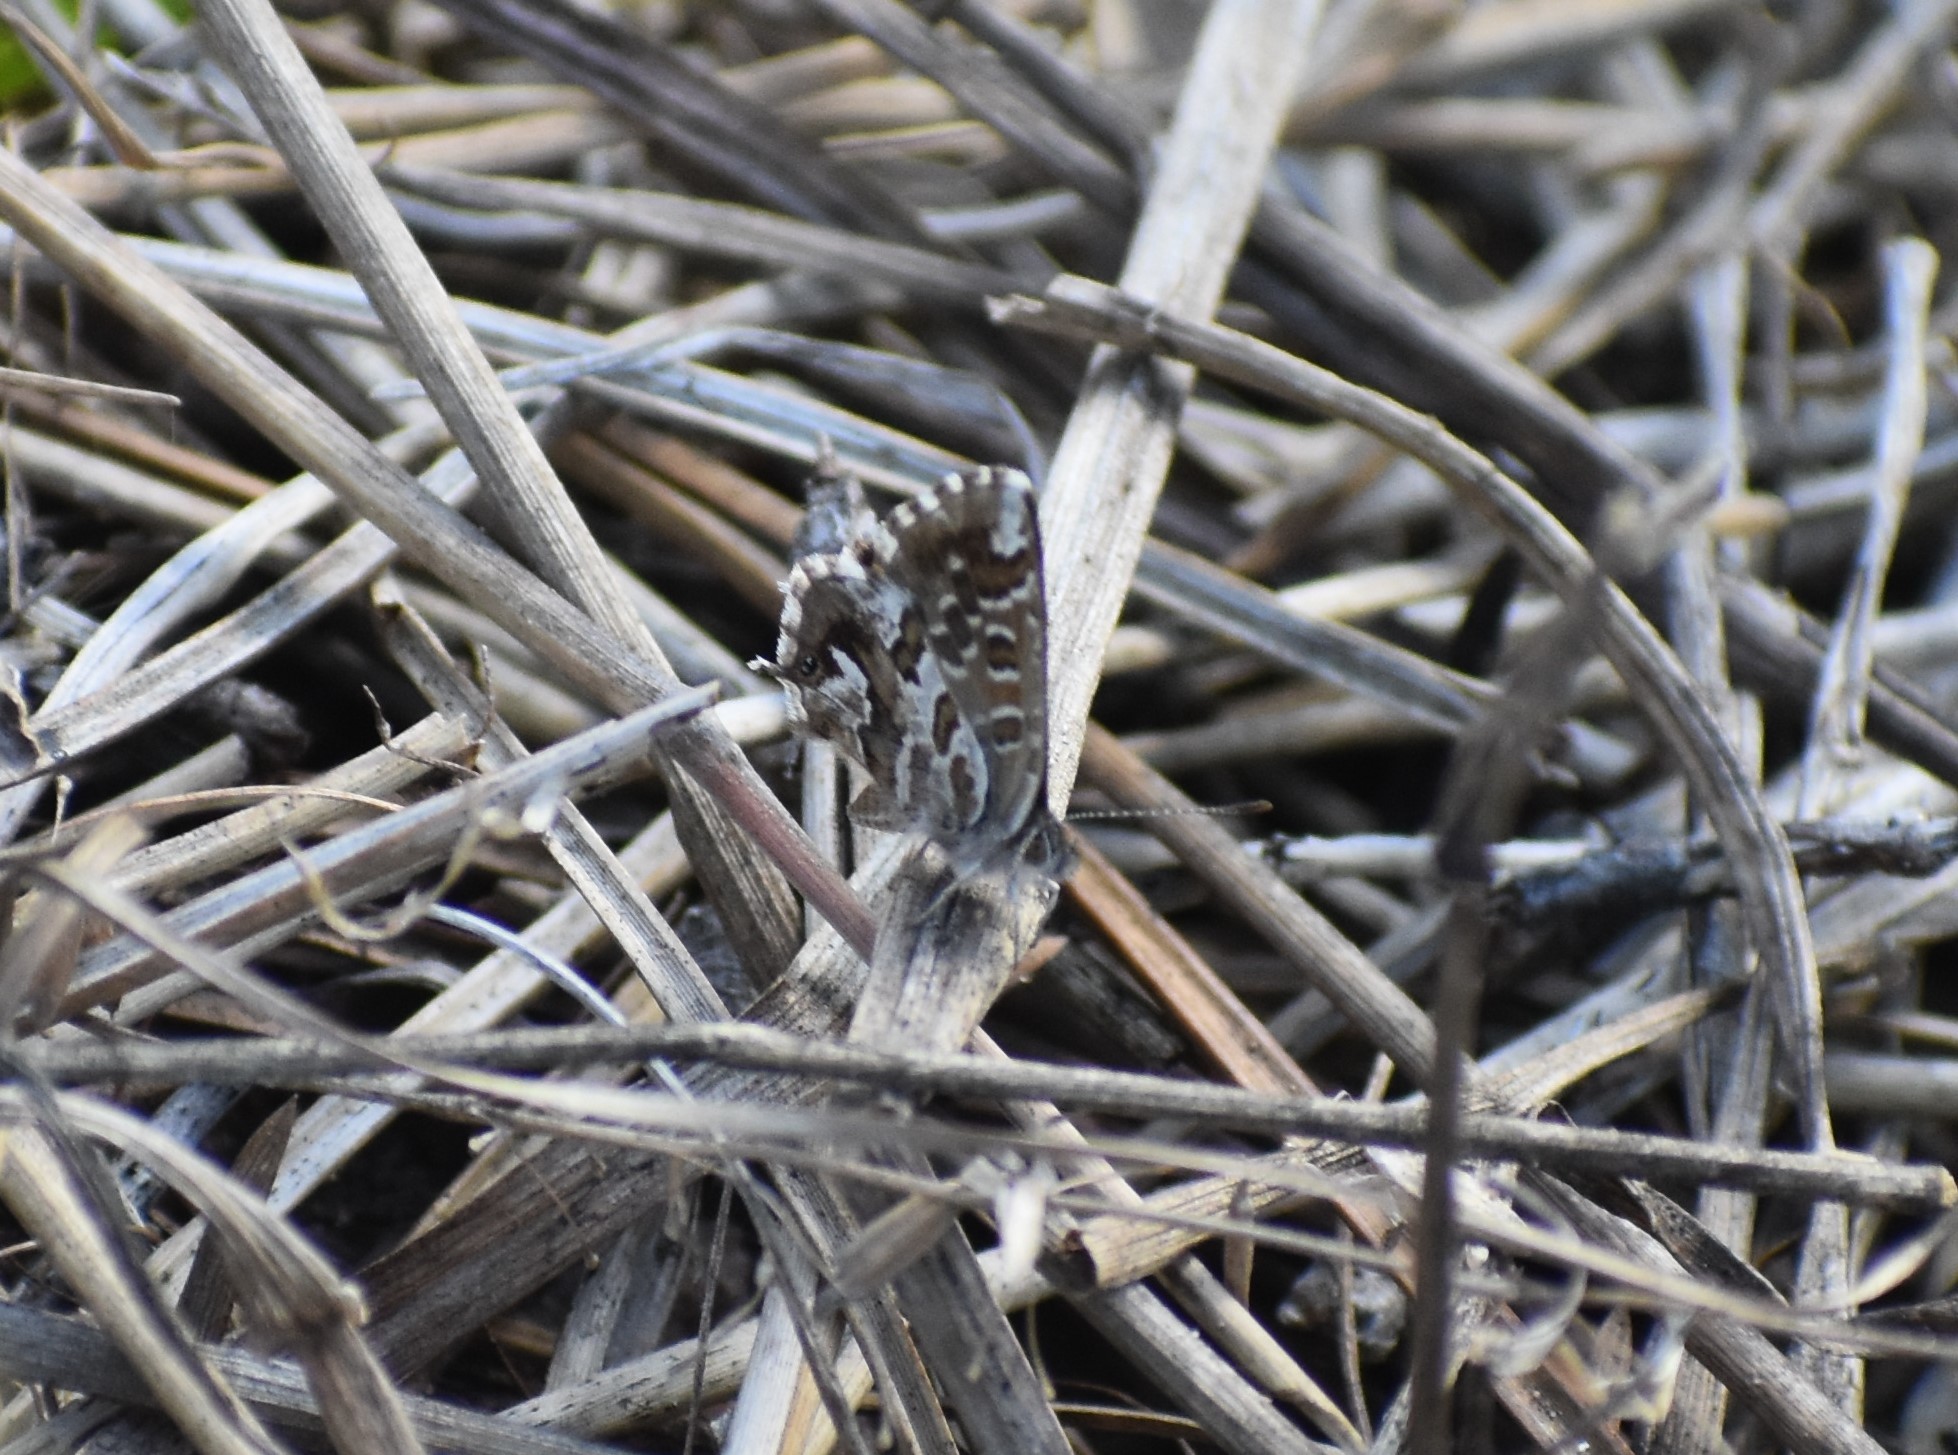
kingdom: Animalia
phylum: Arthropoda
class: Insecta
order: Lepidoptera
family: Lycaenidae
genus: Cacyreus
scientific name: Cacyreus marshalli
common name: Geranium bronze
